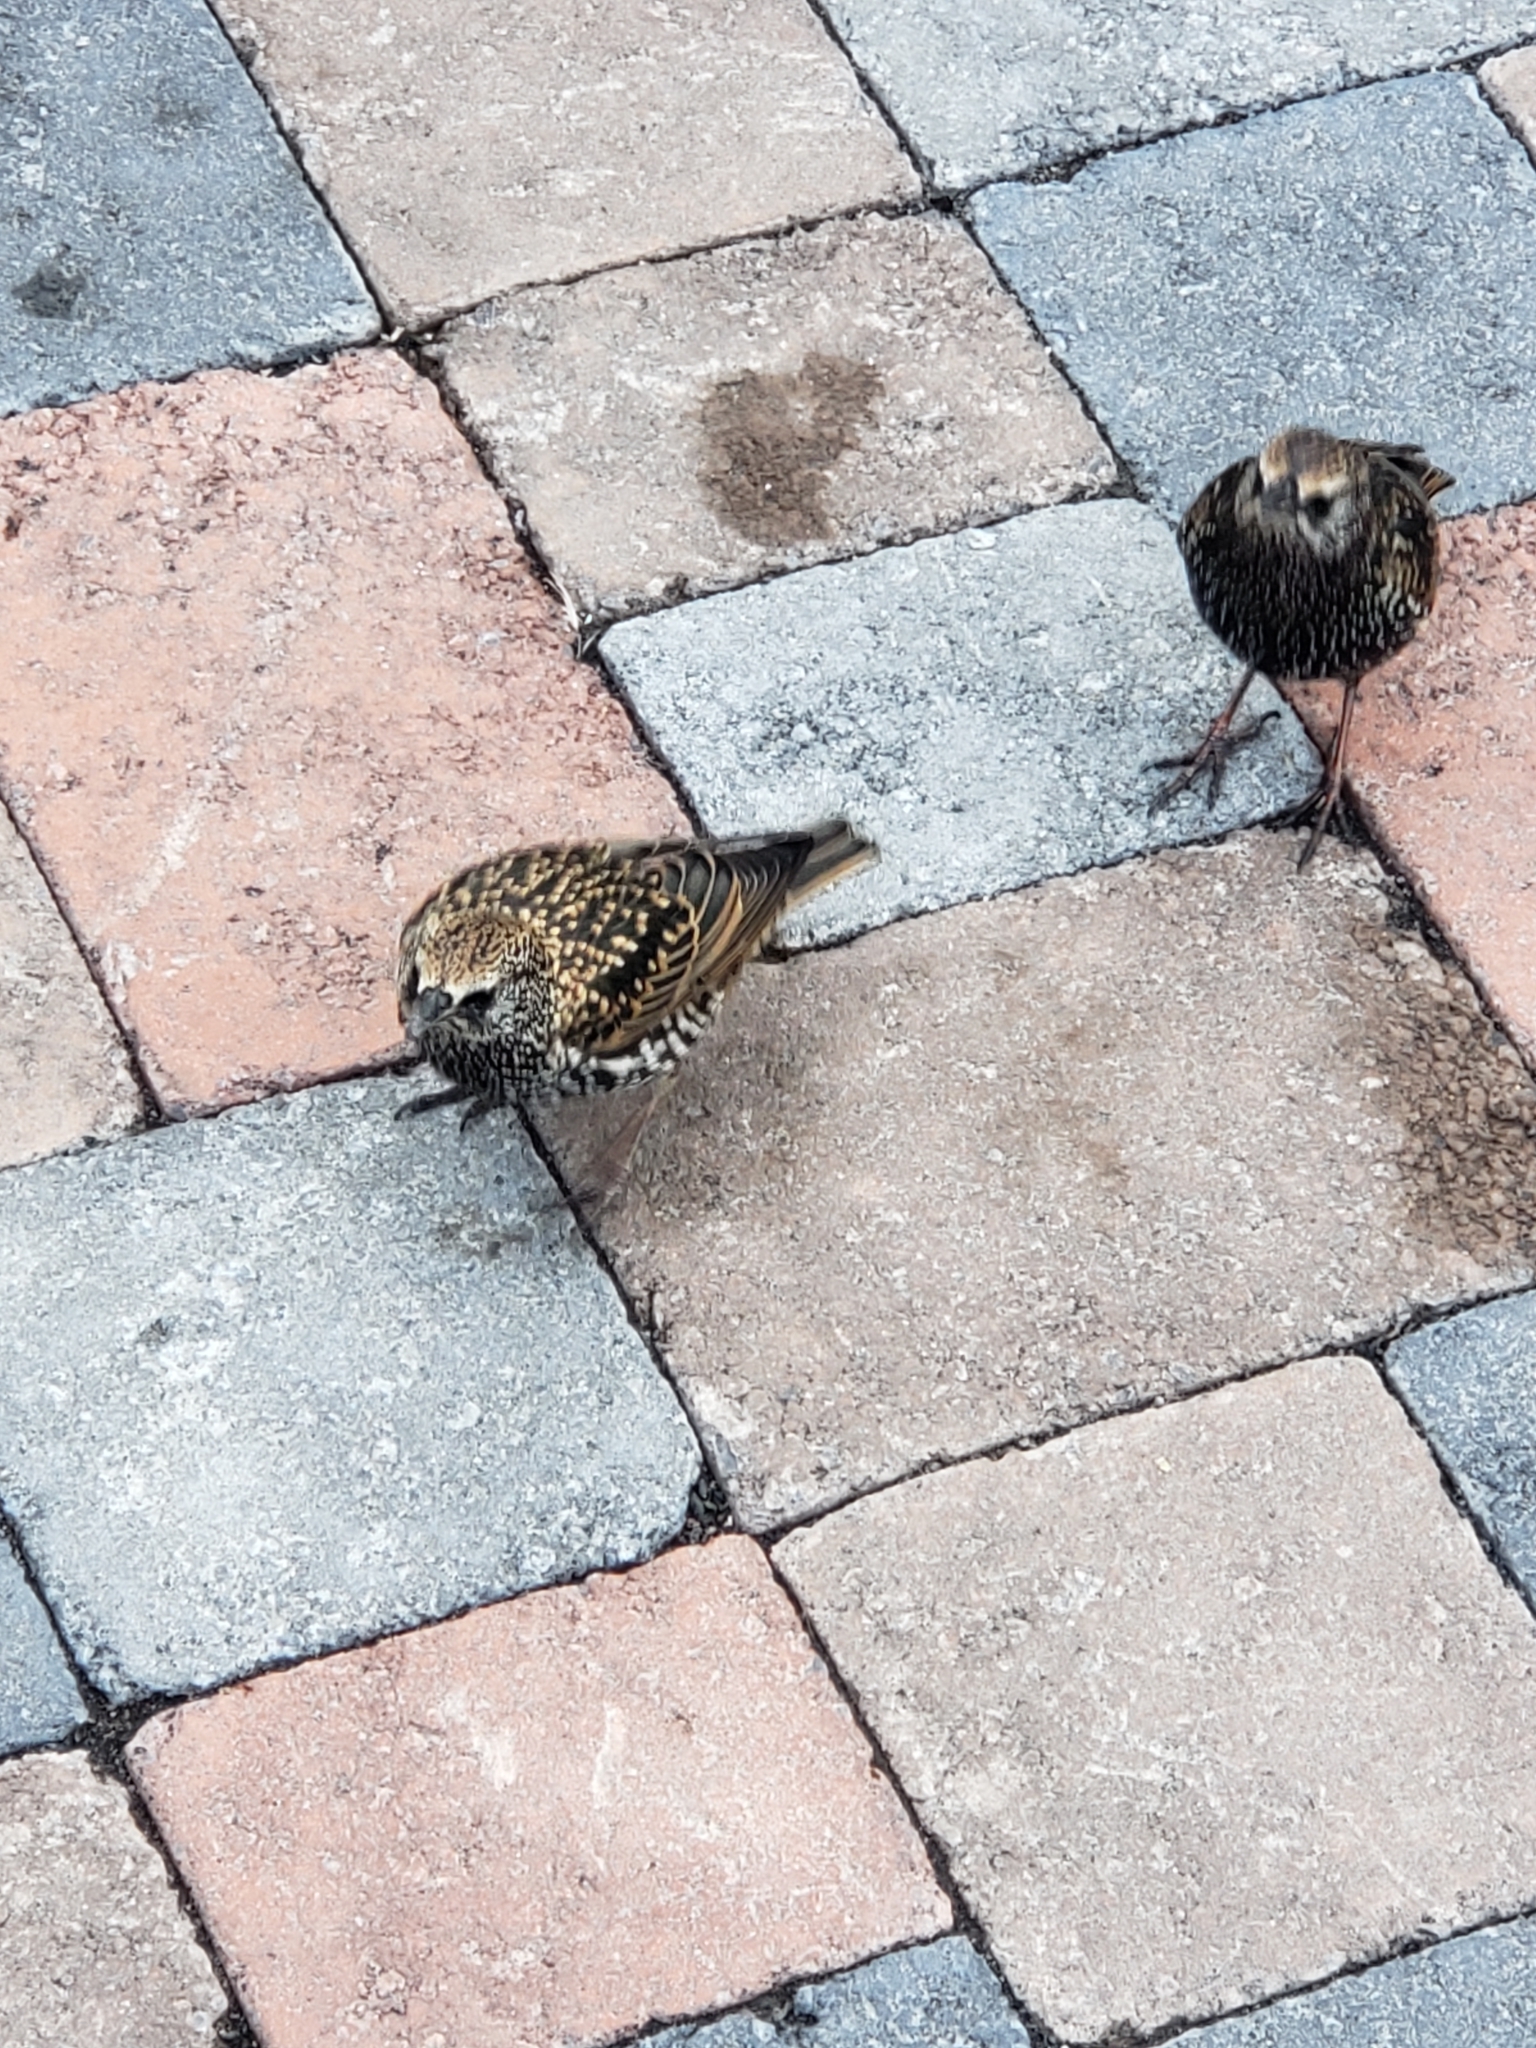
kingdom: Animalia
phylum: Chordata
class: Aves
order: Passeriformes
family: Sturnidae
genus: Sturnus
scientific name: Sturnus vulgaris
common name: Common starling
